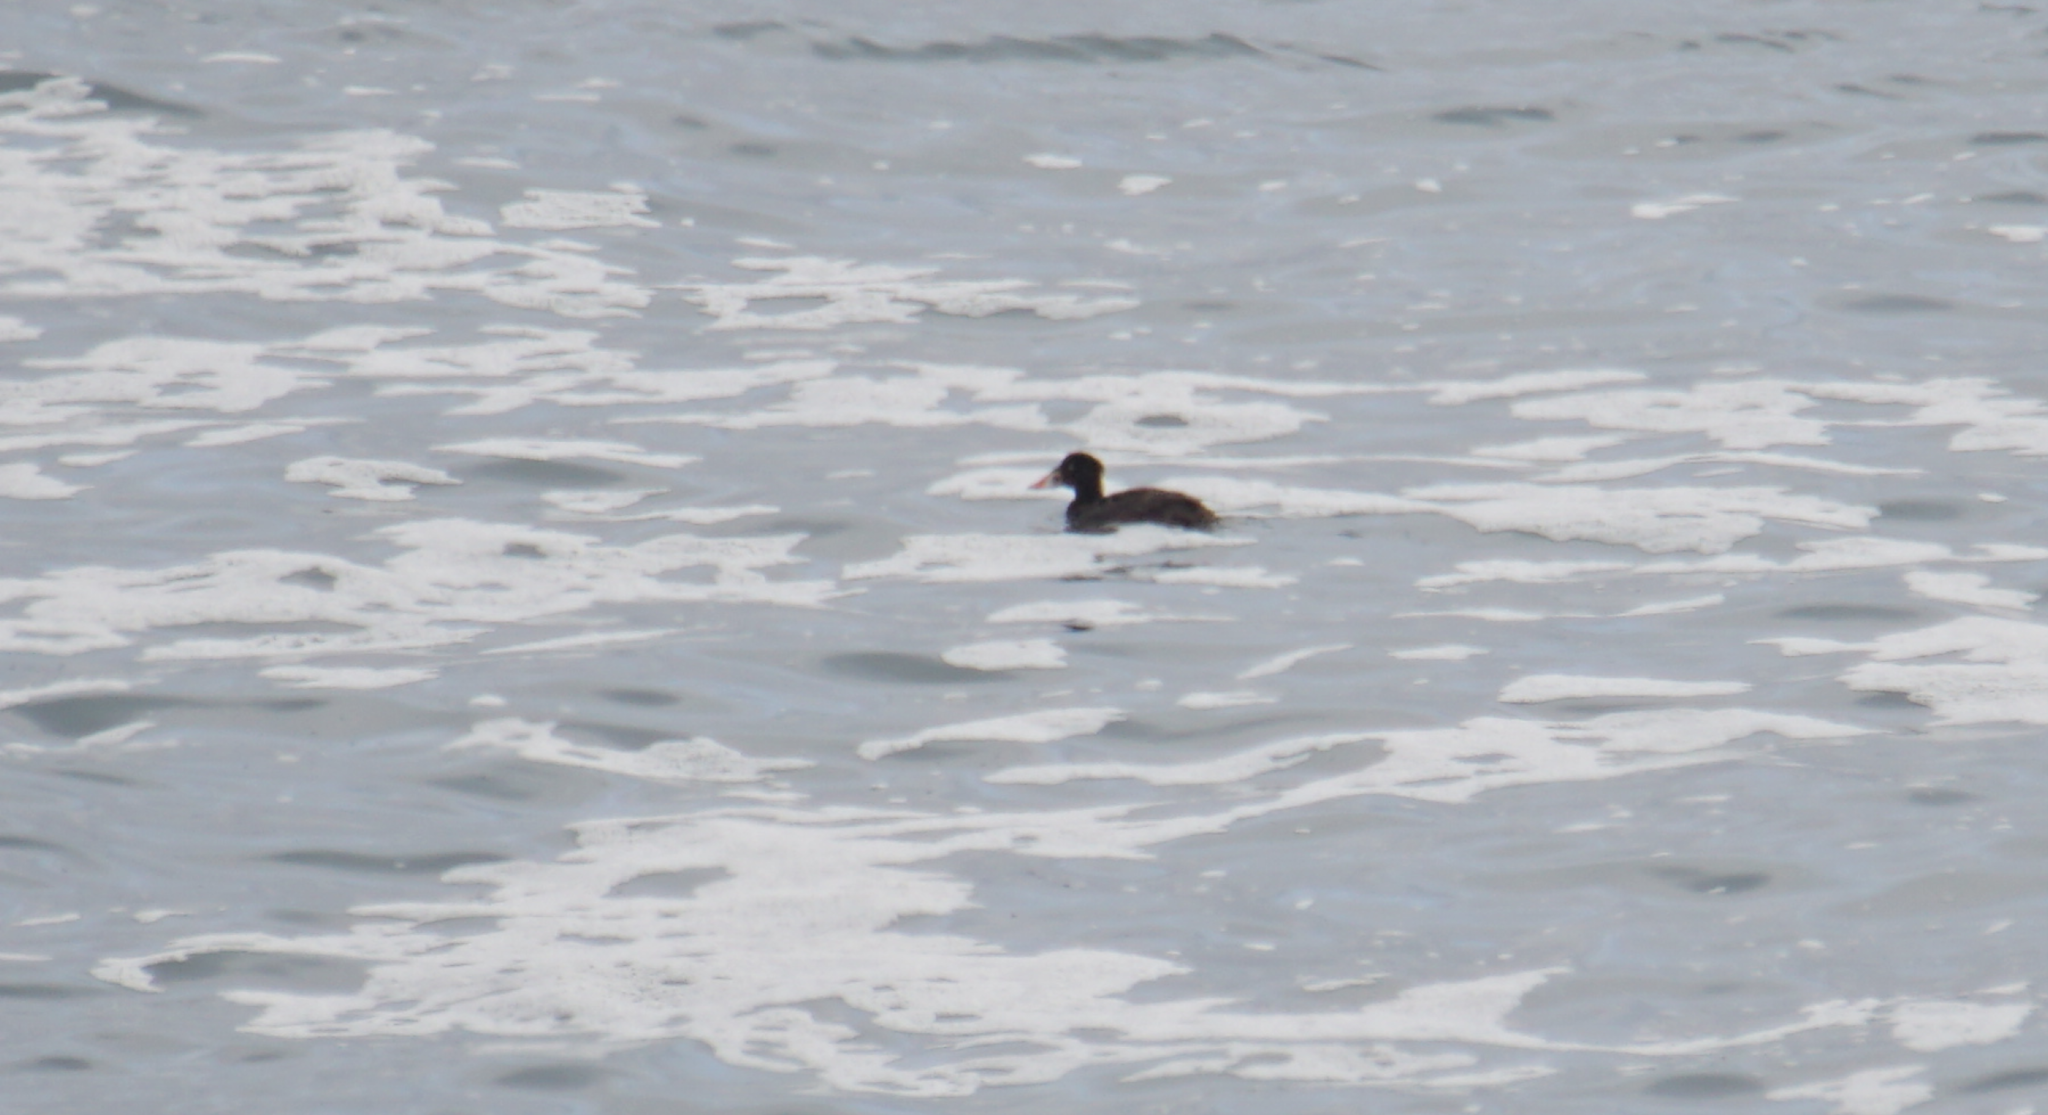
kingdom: Animalia
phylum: Chordata
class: Aves
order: Anseriformes
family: Anatidae
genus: Melanitta
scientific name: Melanitta perspicillata
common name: Surf scoter
